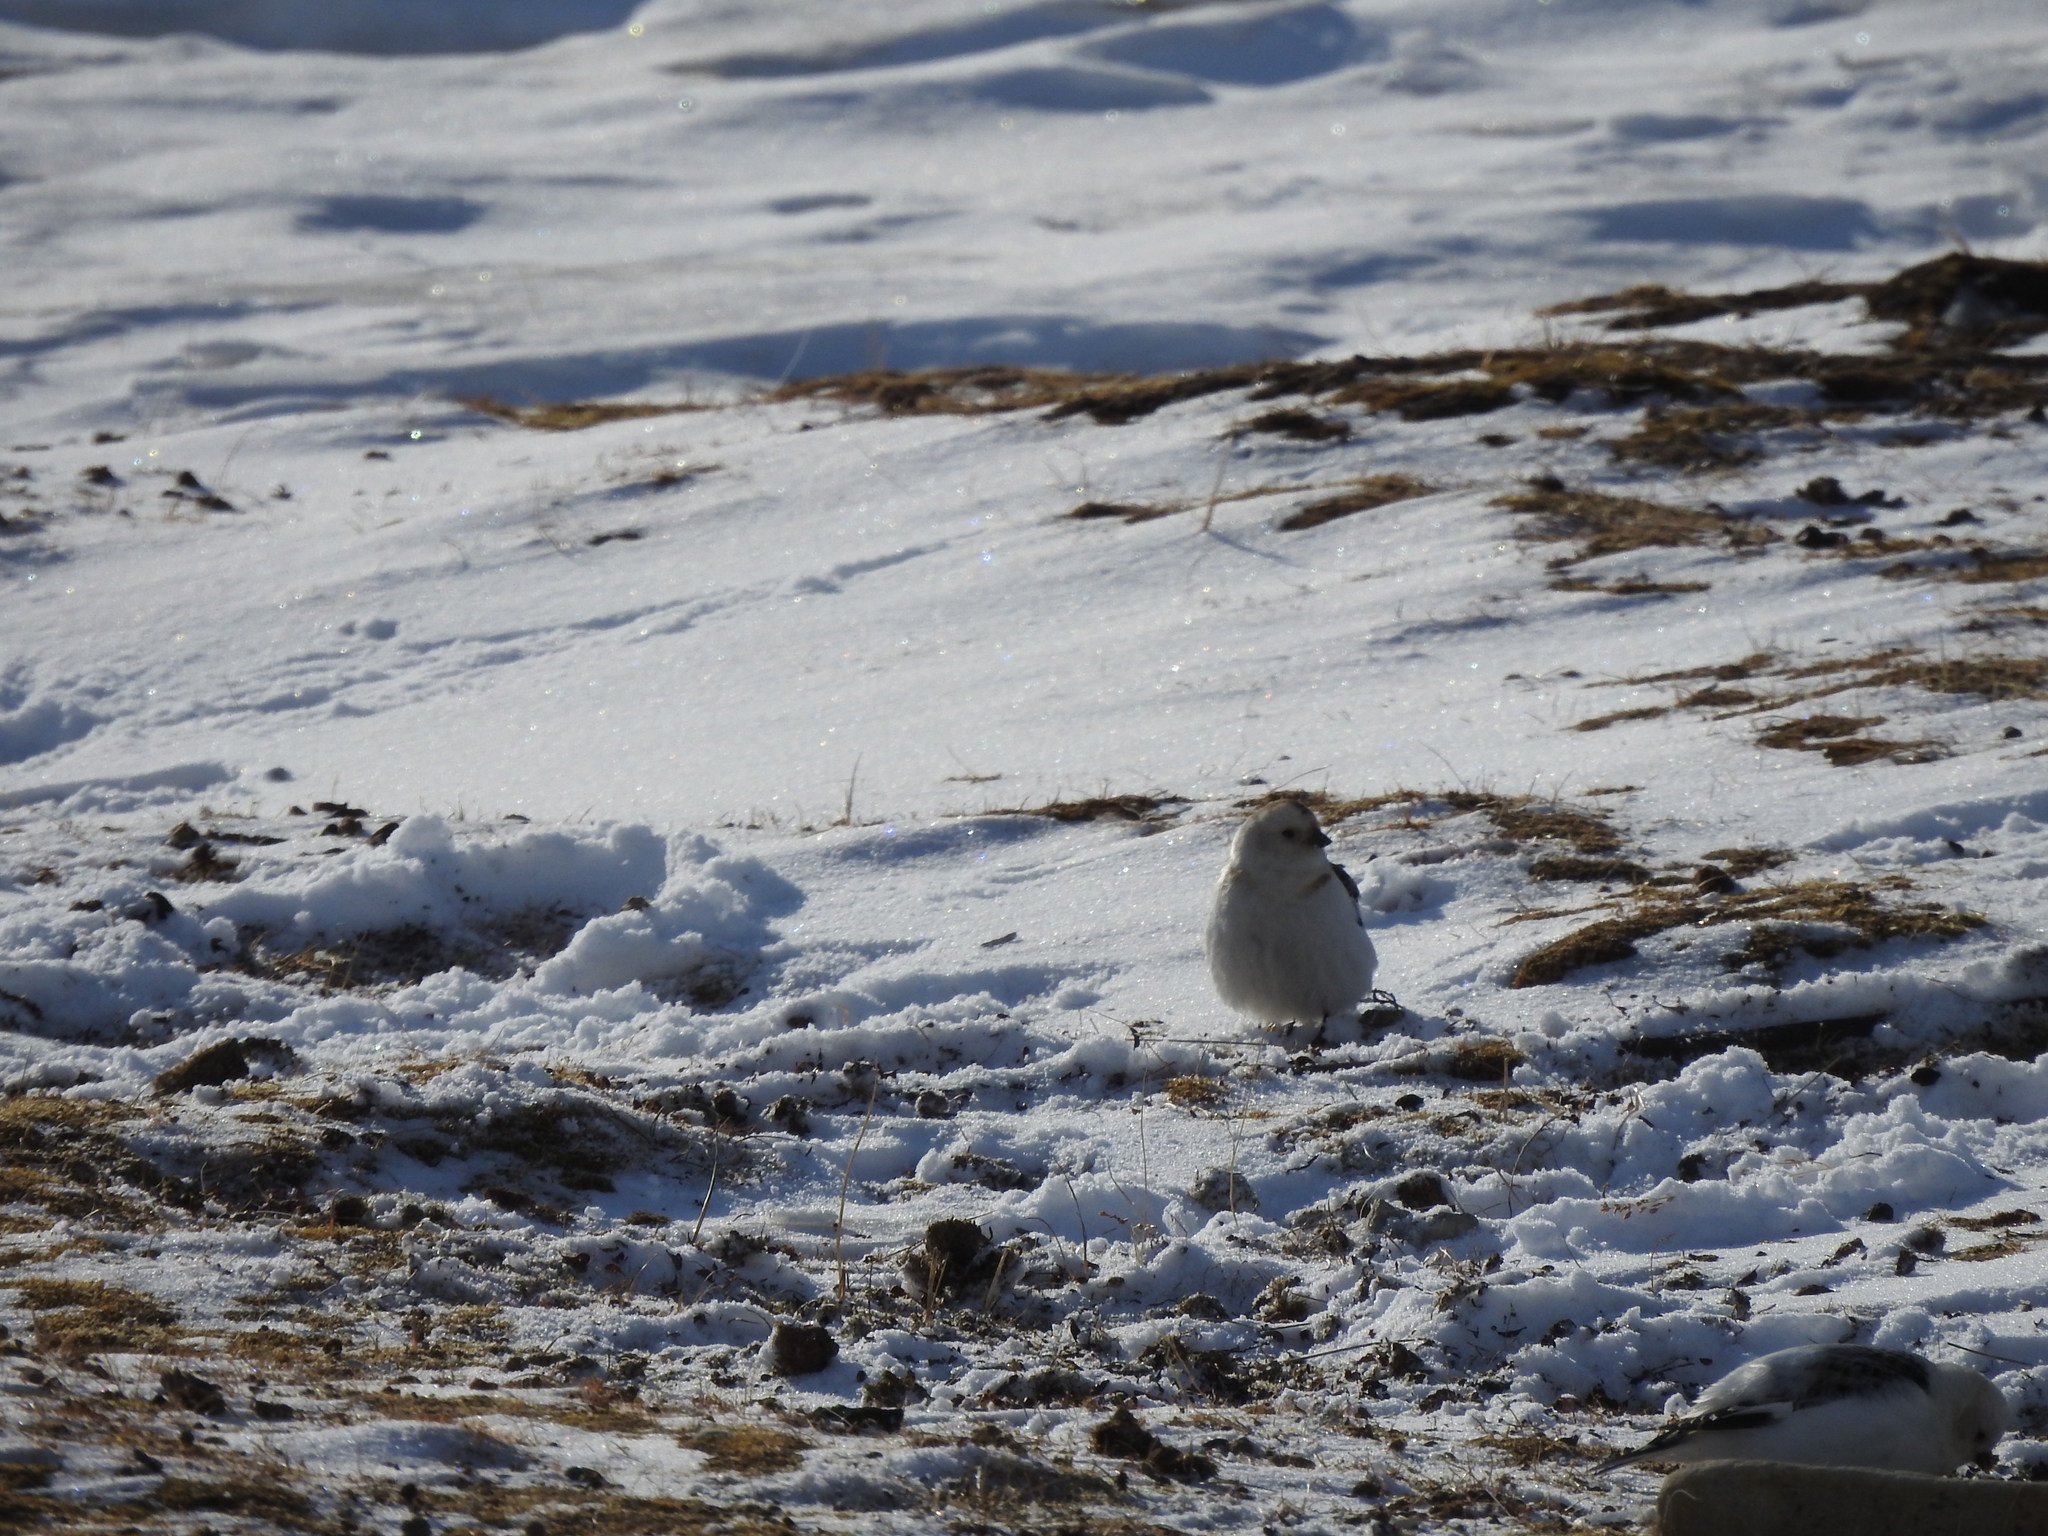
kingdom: Animalia
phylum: Chordata
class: Aves
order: Passeriformes
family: Calcariidae
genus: Plectrophenax
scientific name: Plectrophenax nivalis
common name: Snow bunting
